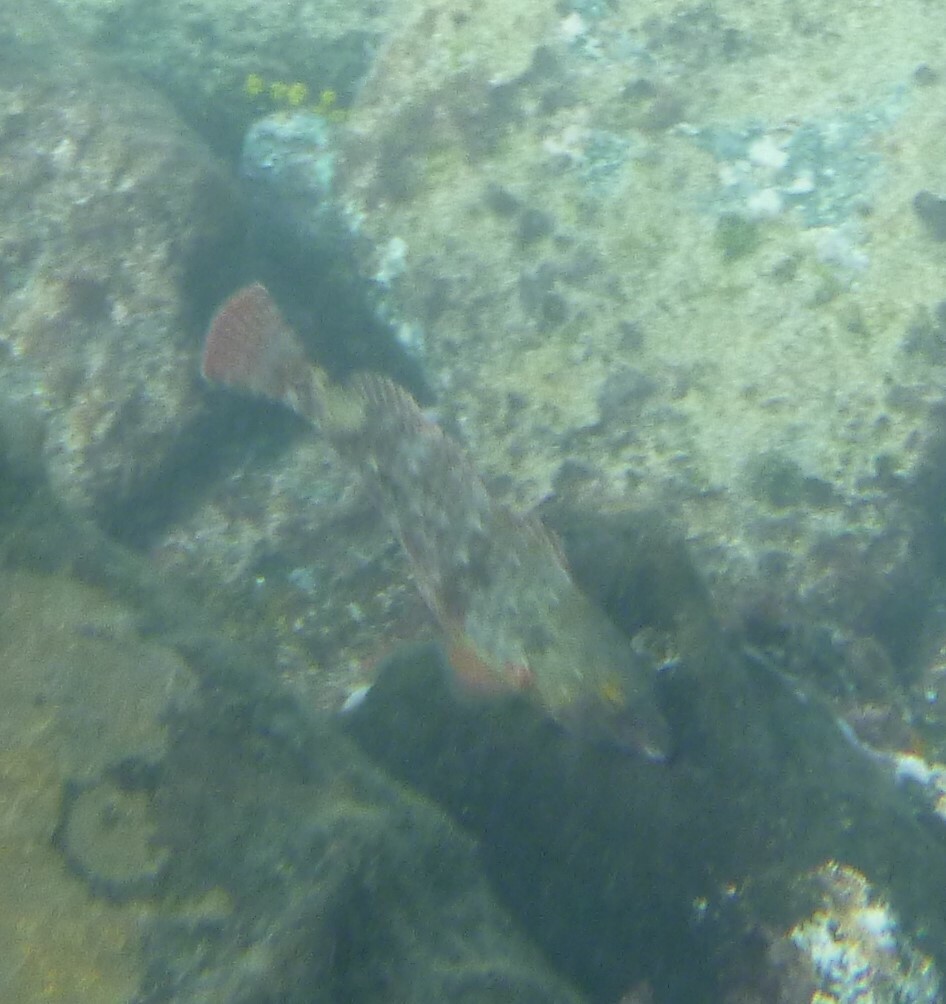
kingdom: Animalia
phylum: Chordata
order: Perciformes
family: Scaridae
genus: Sparisoma
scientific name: Sparisoma cretense
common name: Parrotfish
